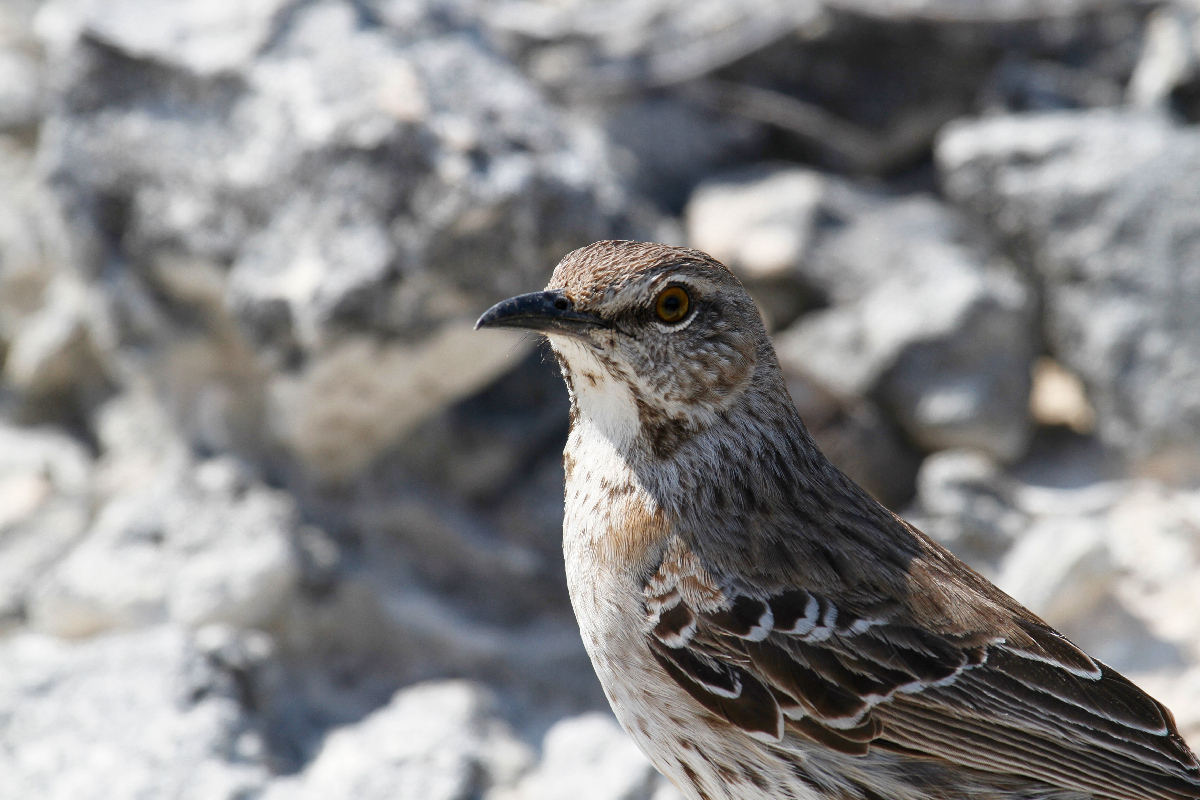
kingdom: Animalia
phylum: Chordata
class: Aves
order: Passeriformes
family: Mimidae
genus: Mimus
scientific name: Mimus gundlachii
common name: Bahama mockingbird
